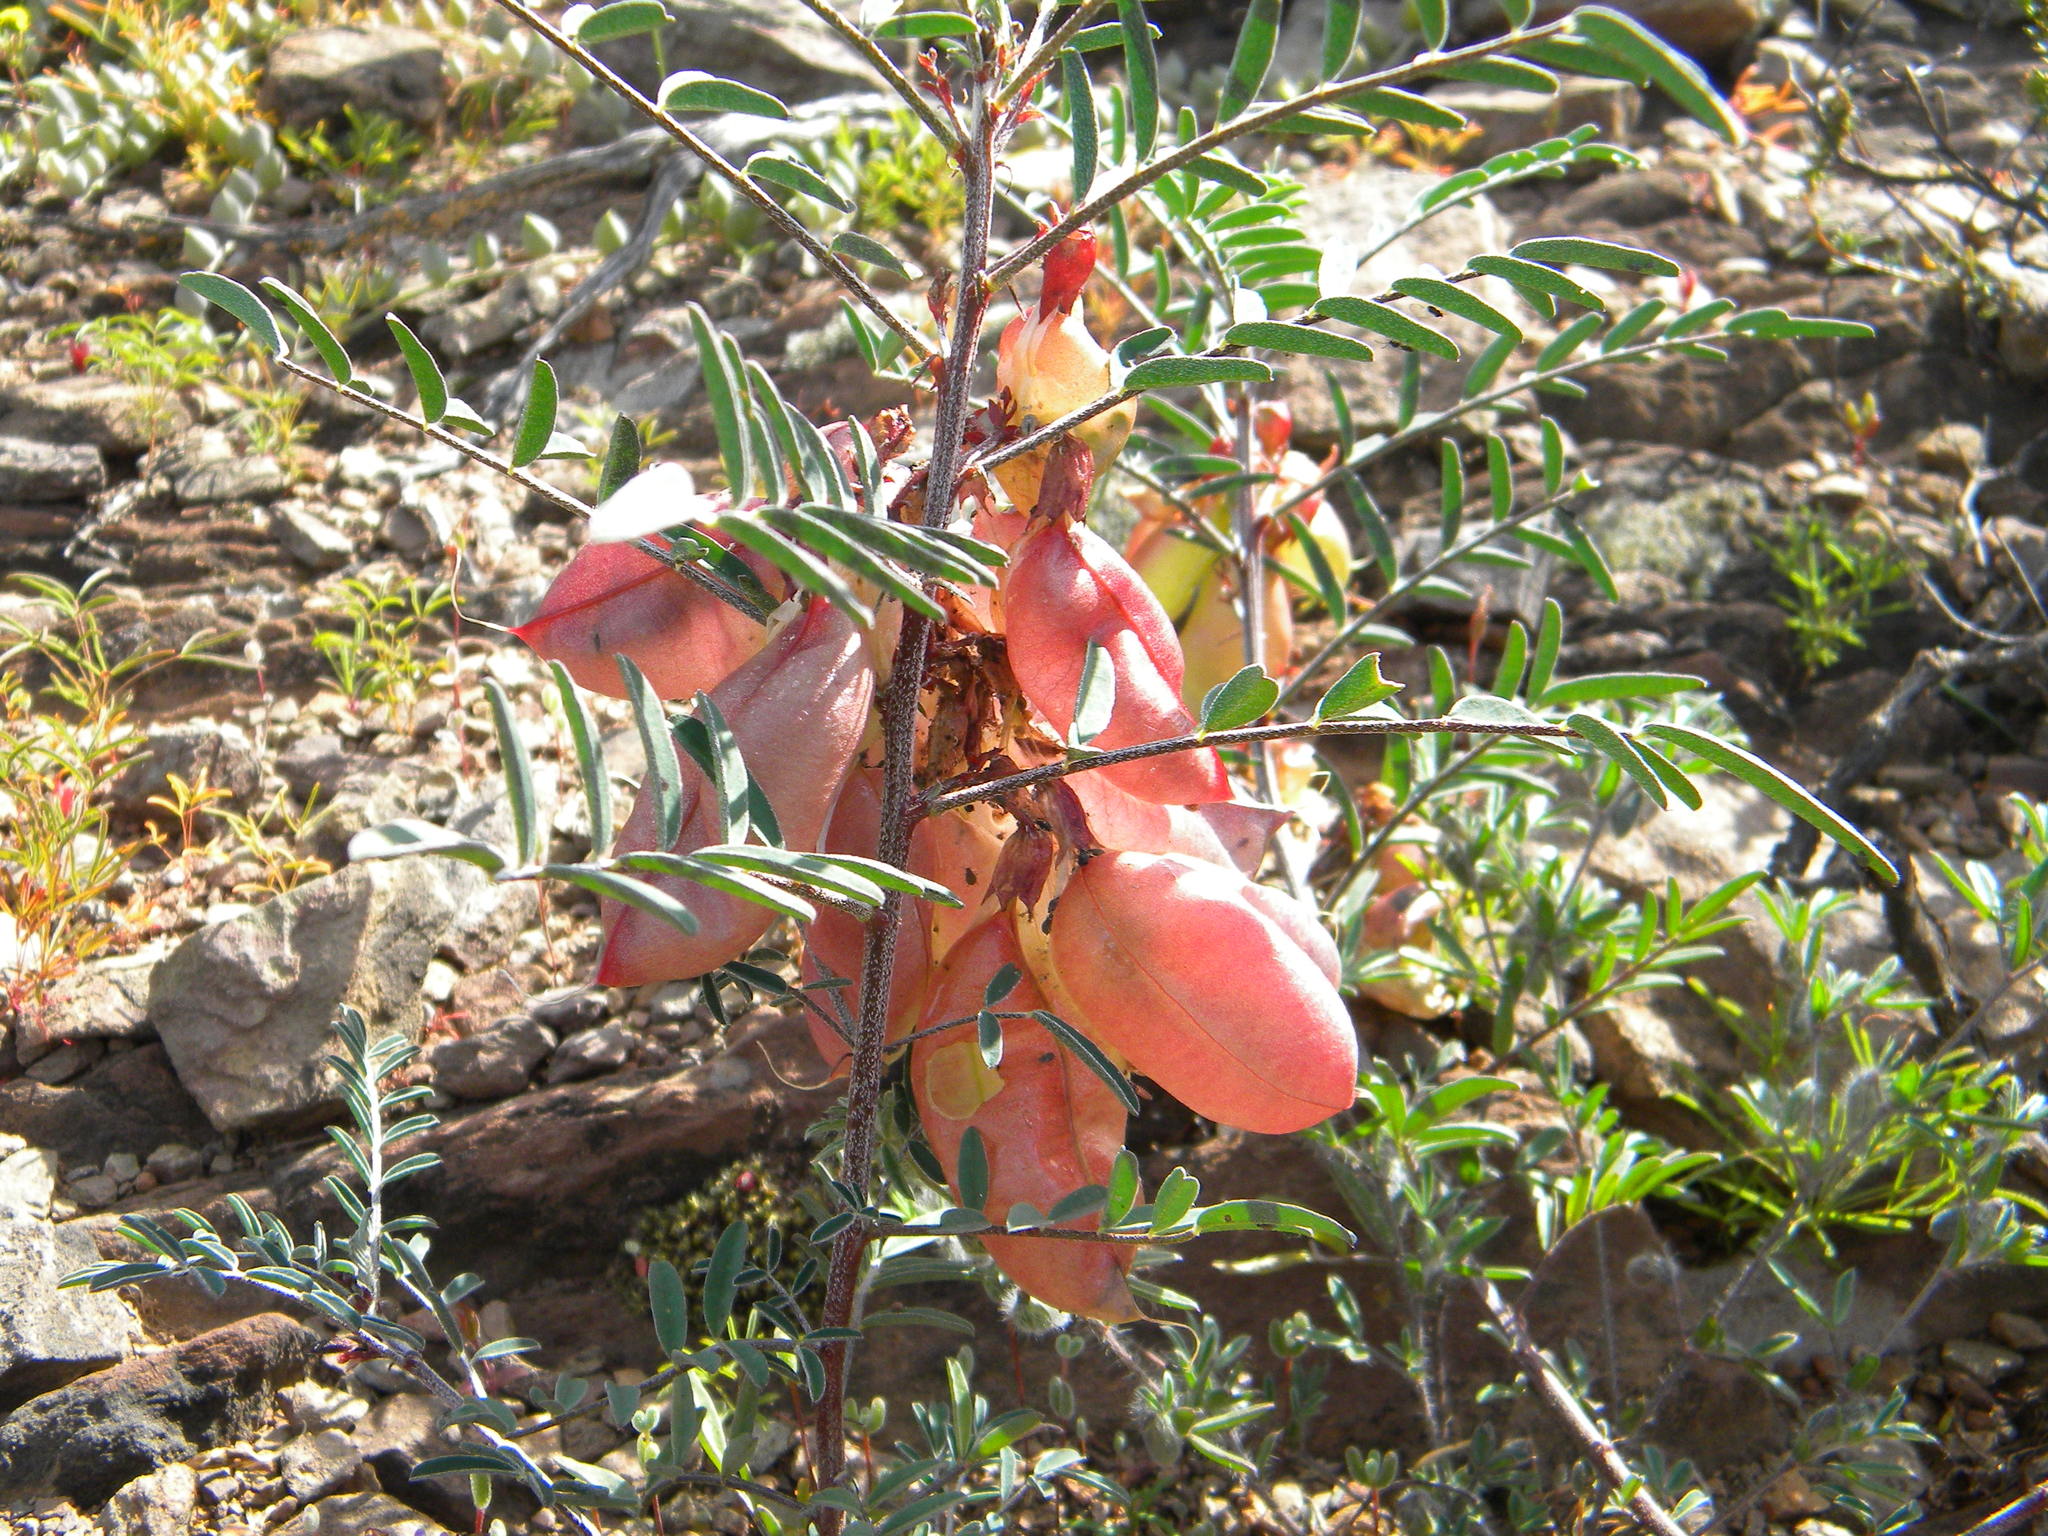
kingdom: Plantae
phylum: Tracheophyta
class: Magnoliopsida
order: Fabales
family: Fabaceae
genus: Lessertia
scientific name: Lessertia frutescens
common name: Balloon-pea
